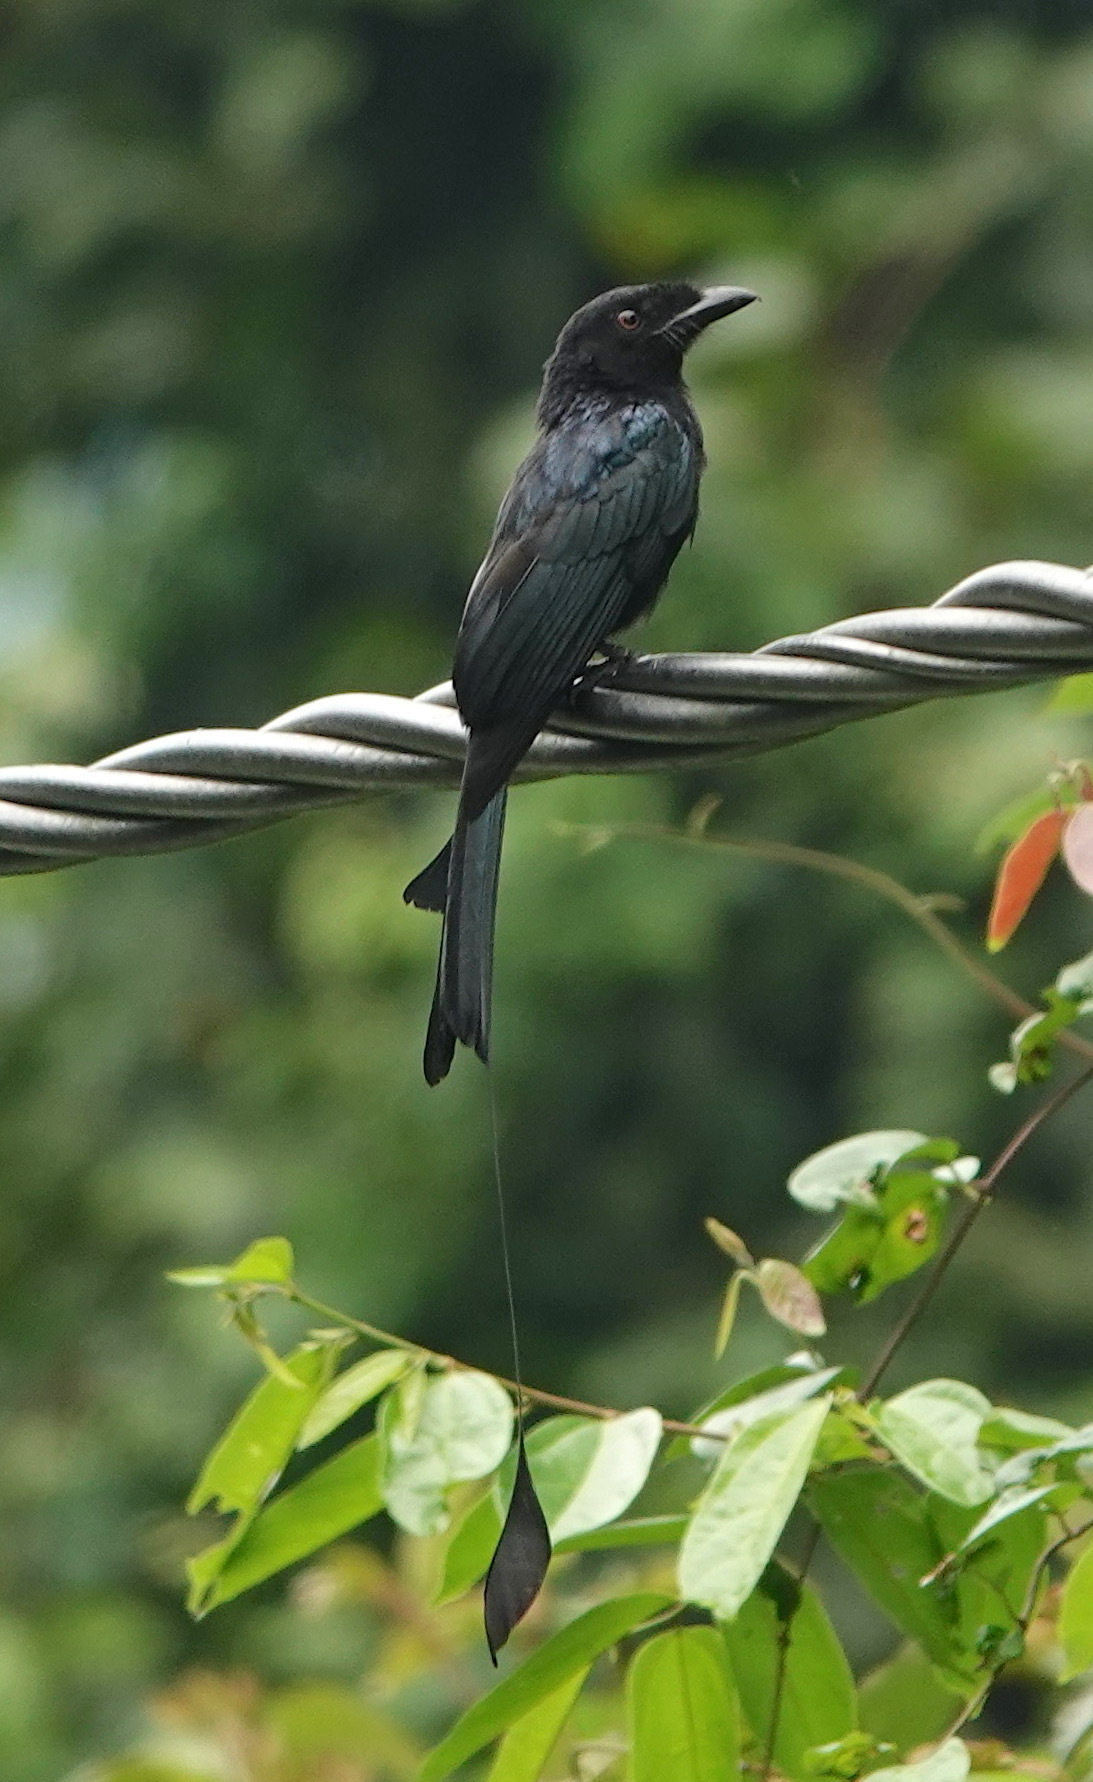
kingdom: Animalia
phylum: Chordata
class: Aves
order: Passeriformes
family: Dicruridae
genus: Dicrurus
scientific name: Dicrurus paradiseus
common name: Greater racket-tailed drongo
